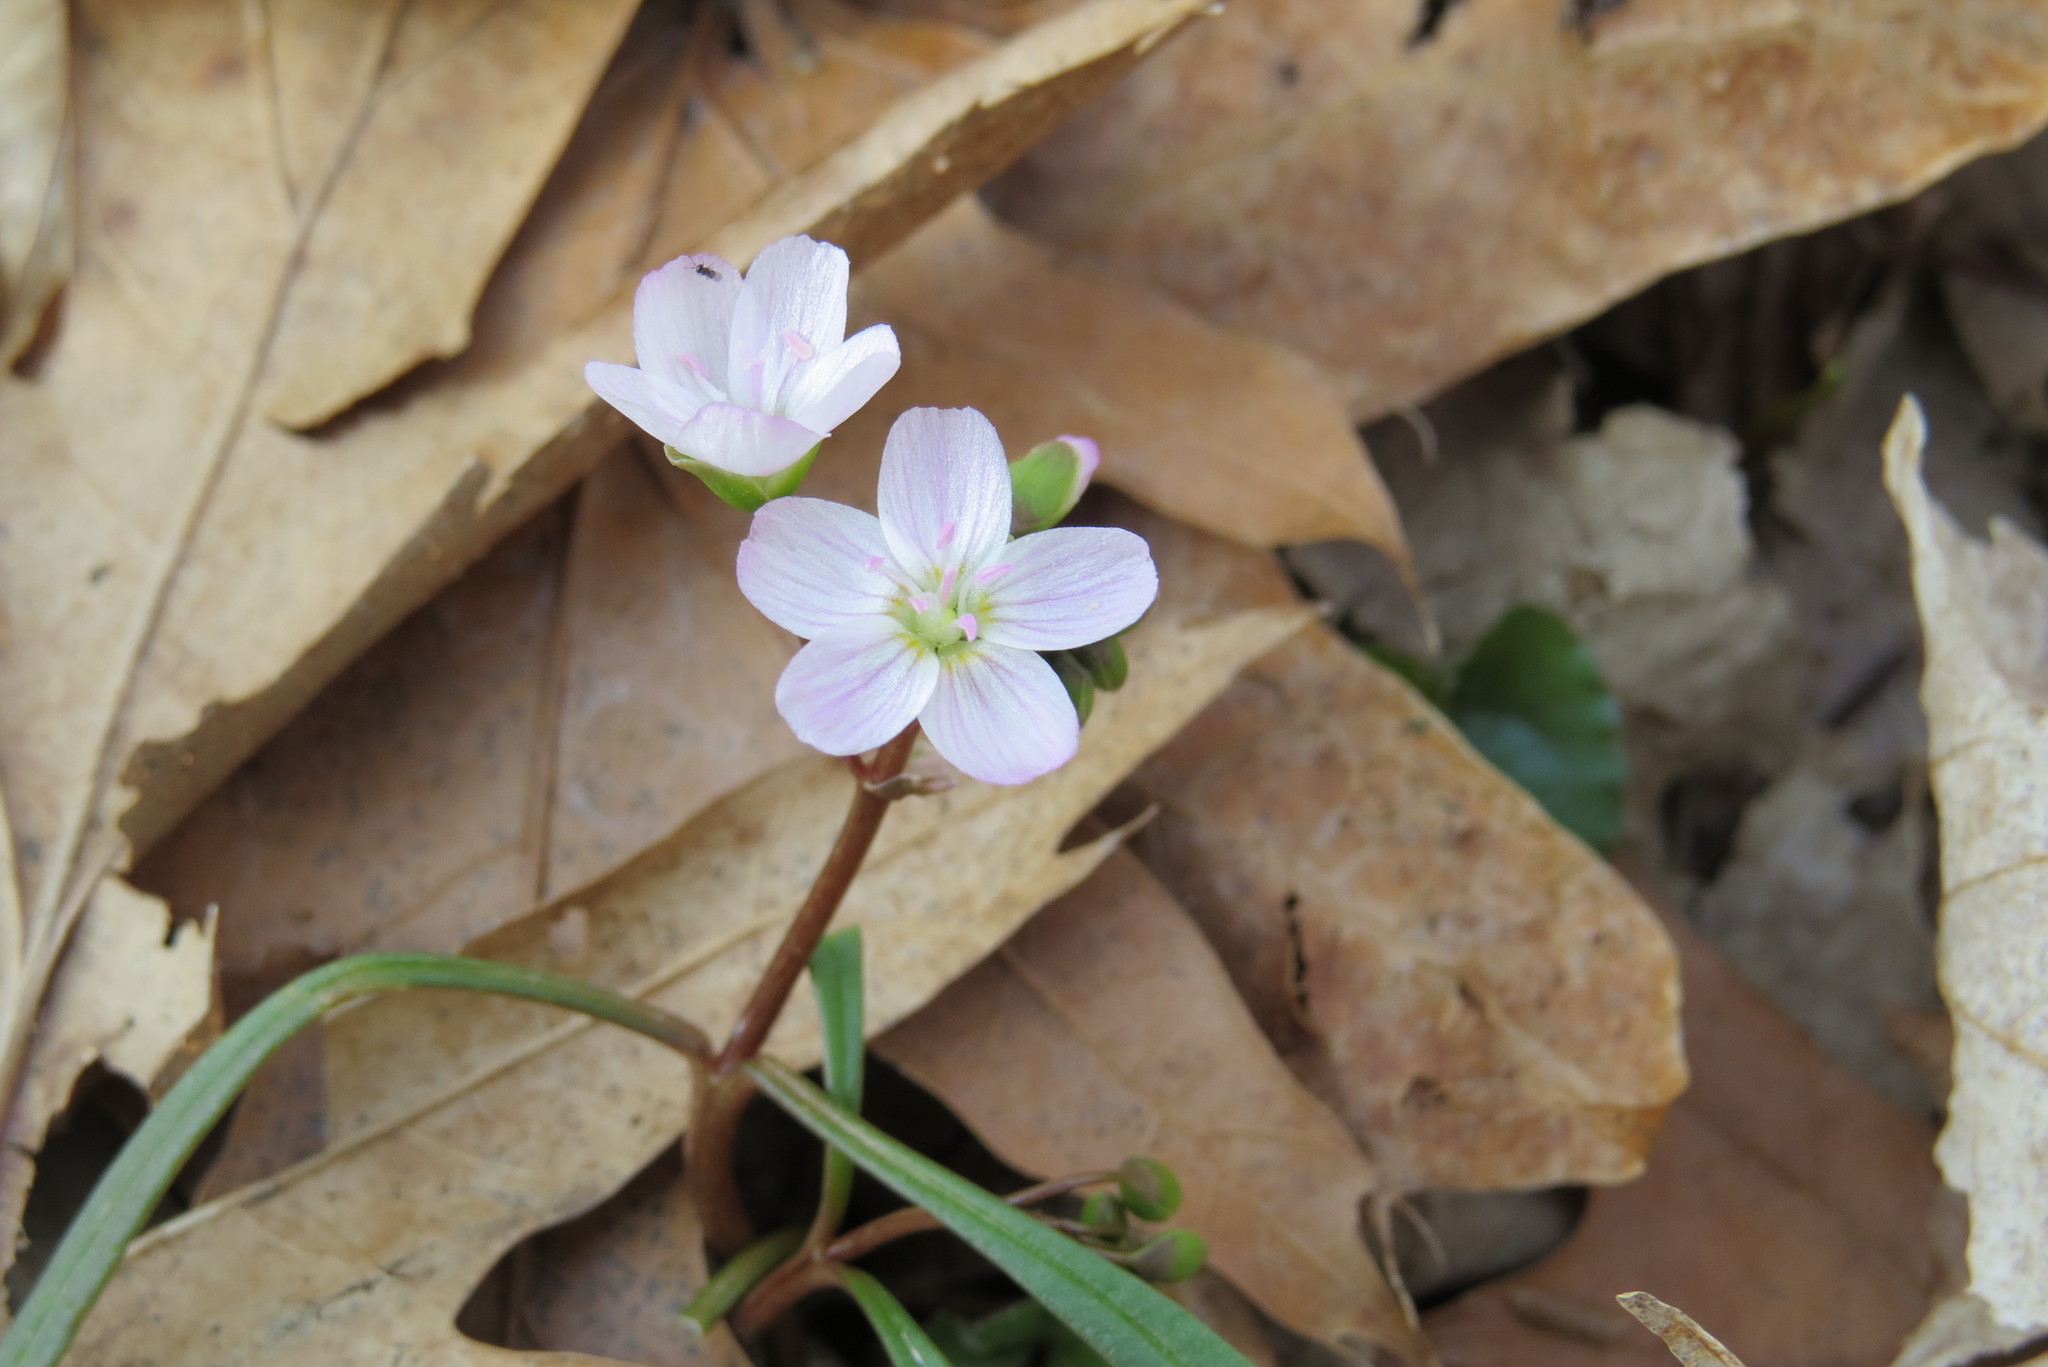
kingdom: Plantae
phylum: Tracheophyta
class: Magnoliopsida
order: Caryophyllales
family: Montiaceae
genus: Claytonia
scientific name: Claytonia virginica
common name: Virginia springbeauty
